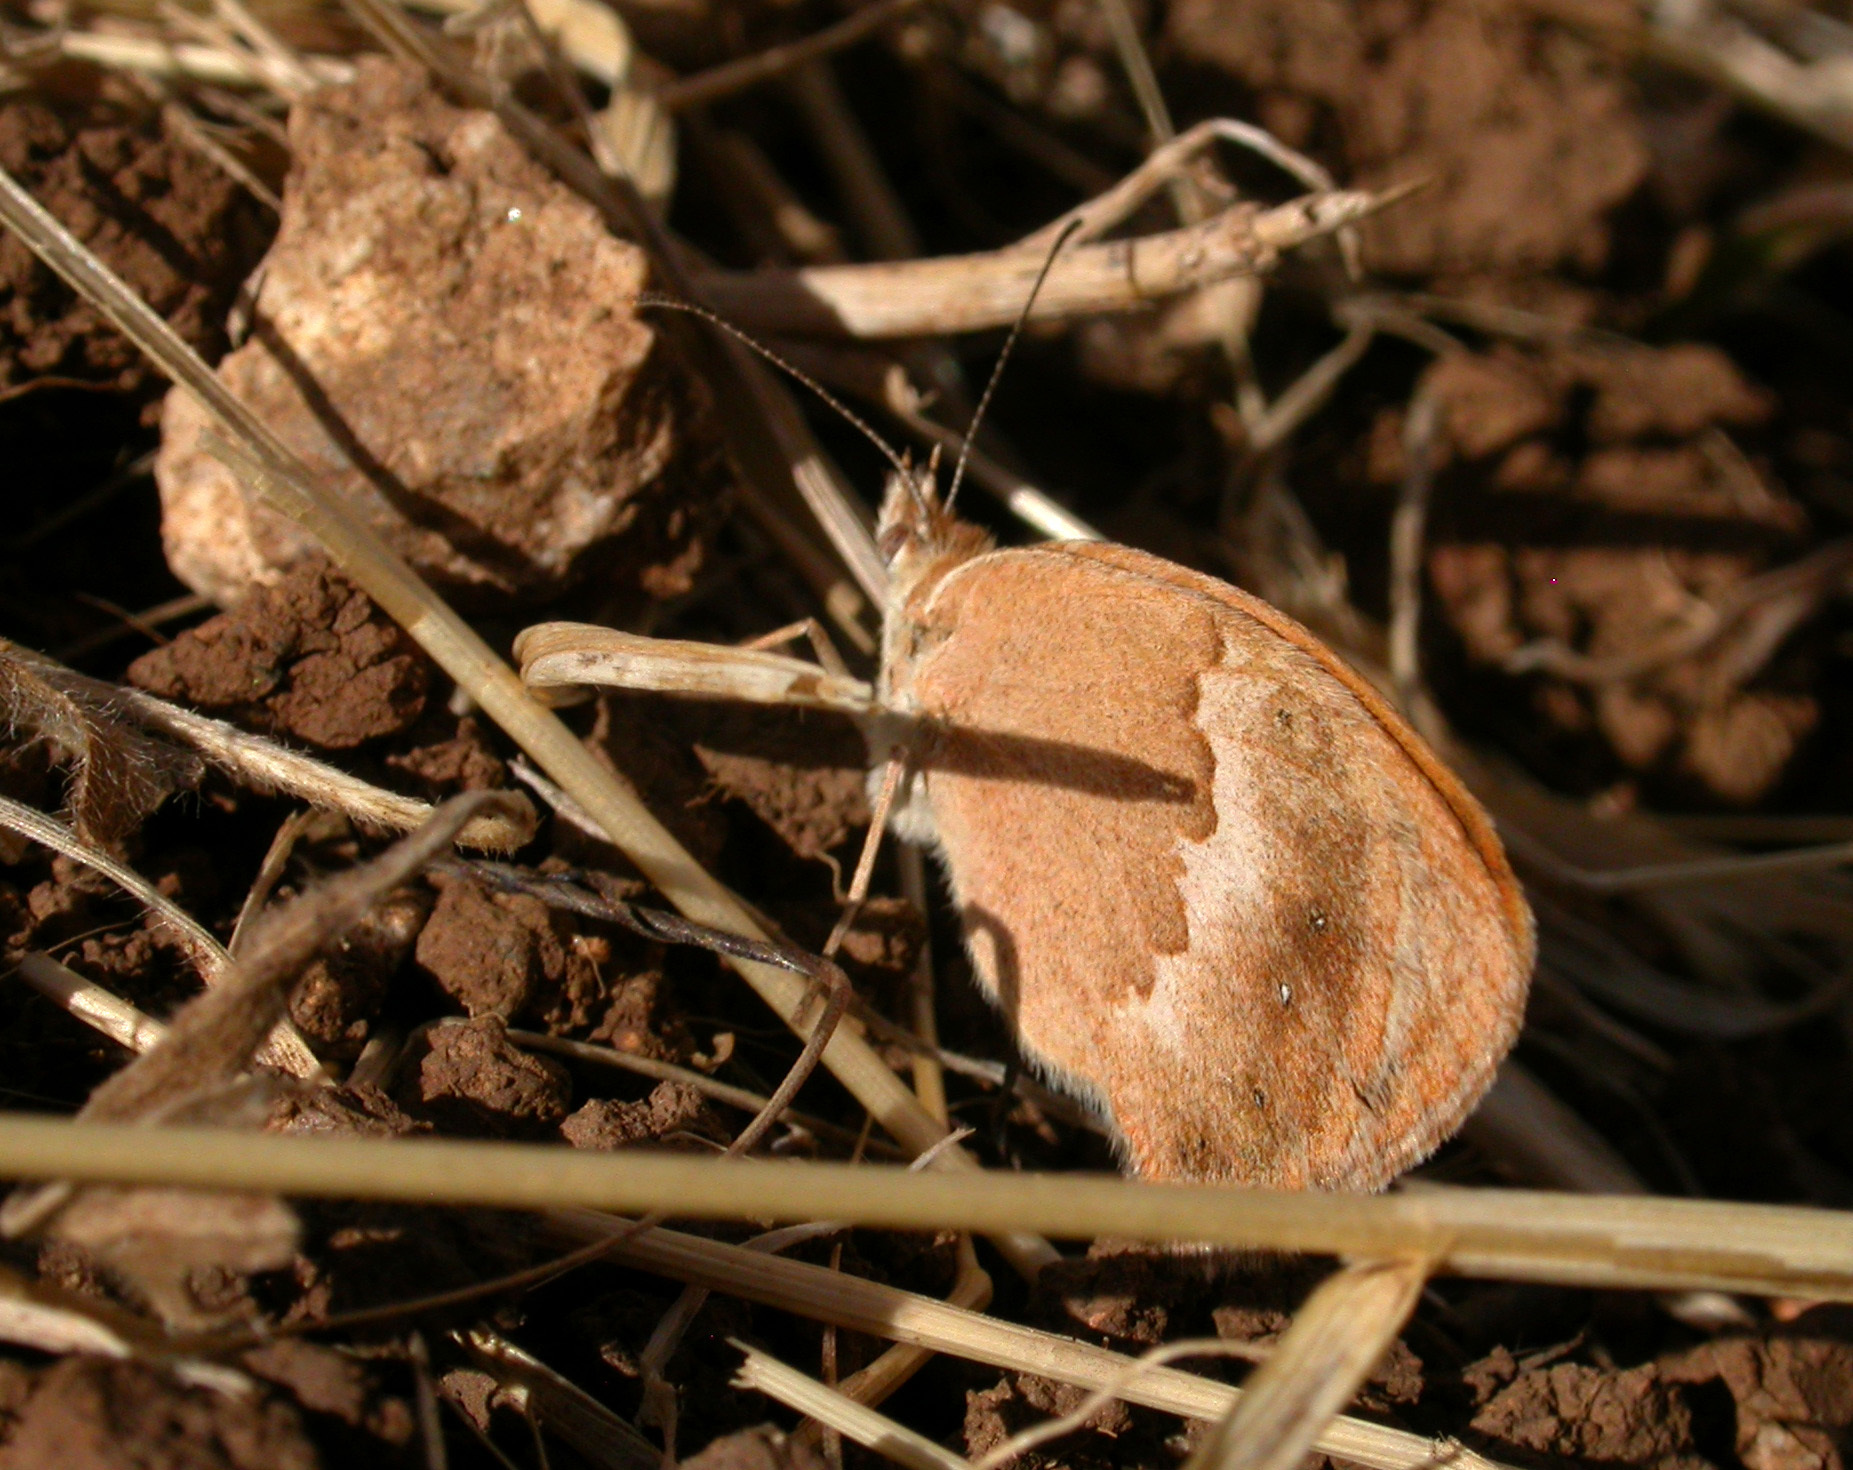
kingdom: Animalia
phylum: Arthropoda
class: Insecta
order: Lepidoptera
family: Nymphalidae
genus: Coenonympha
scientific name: Coenonympha pamphilus
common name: Small heath
